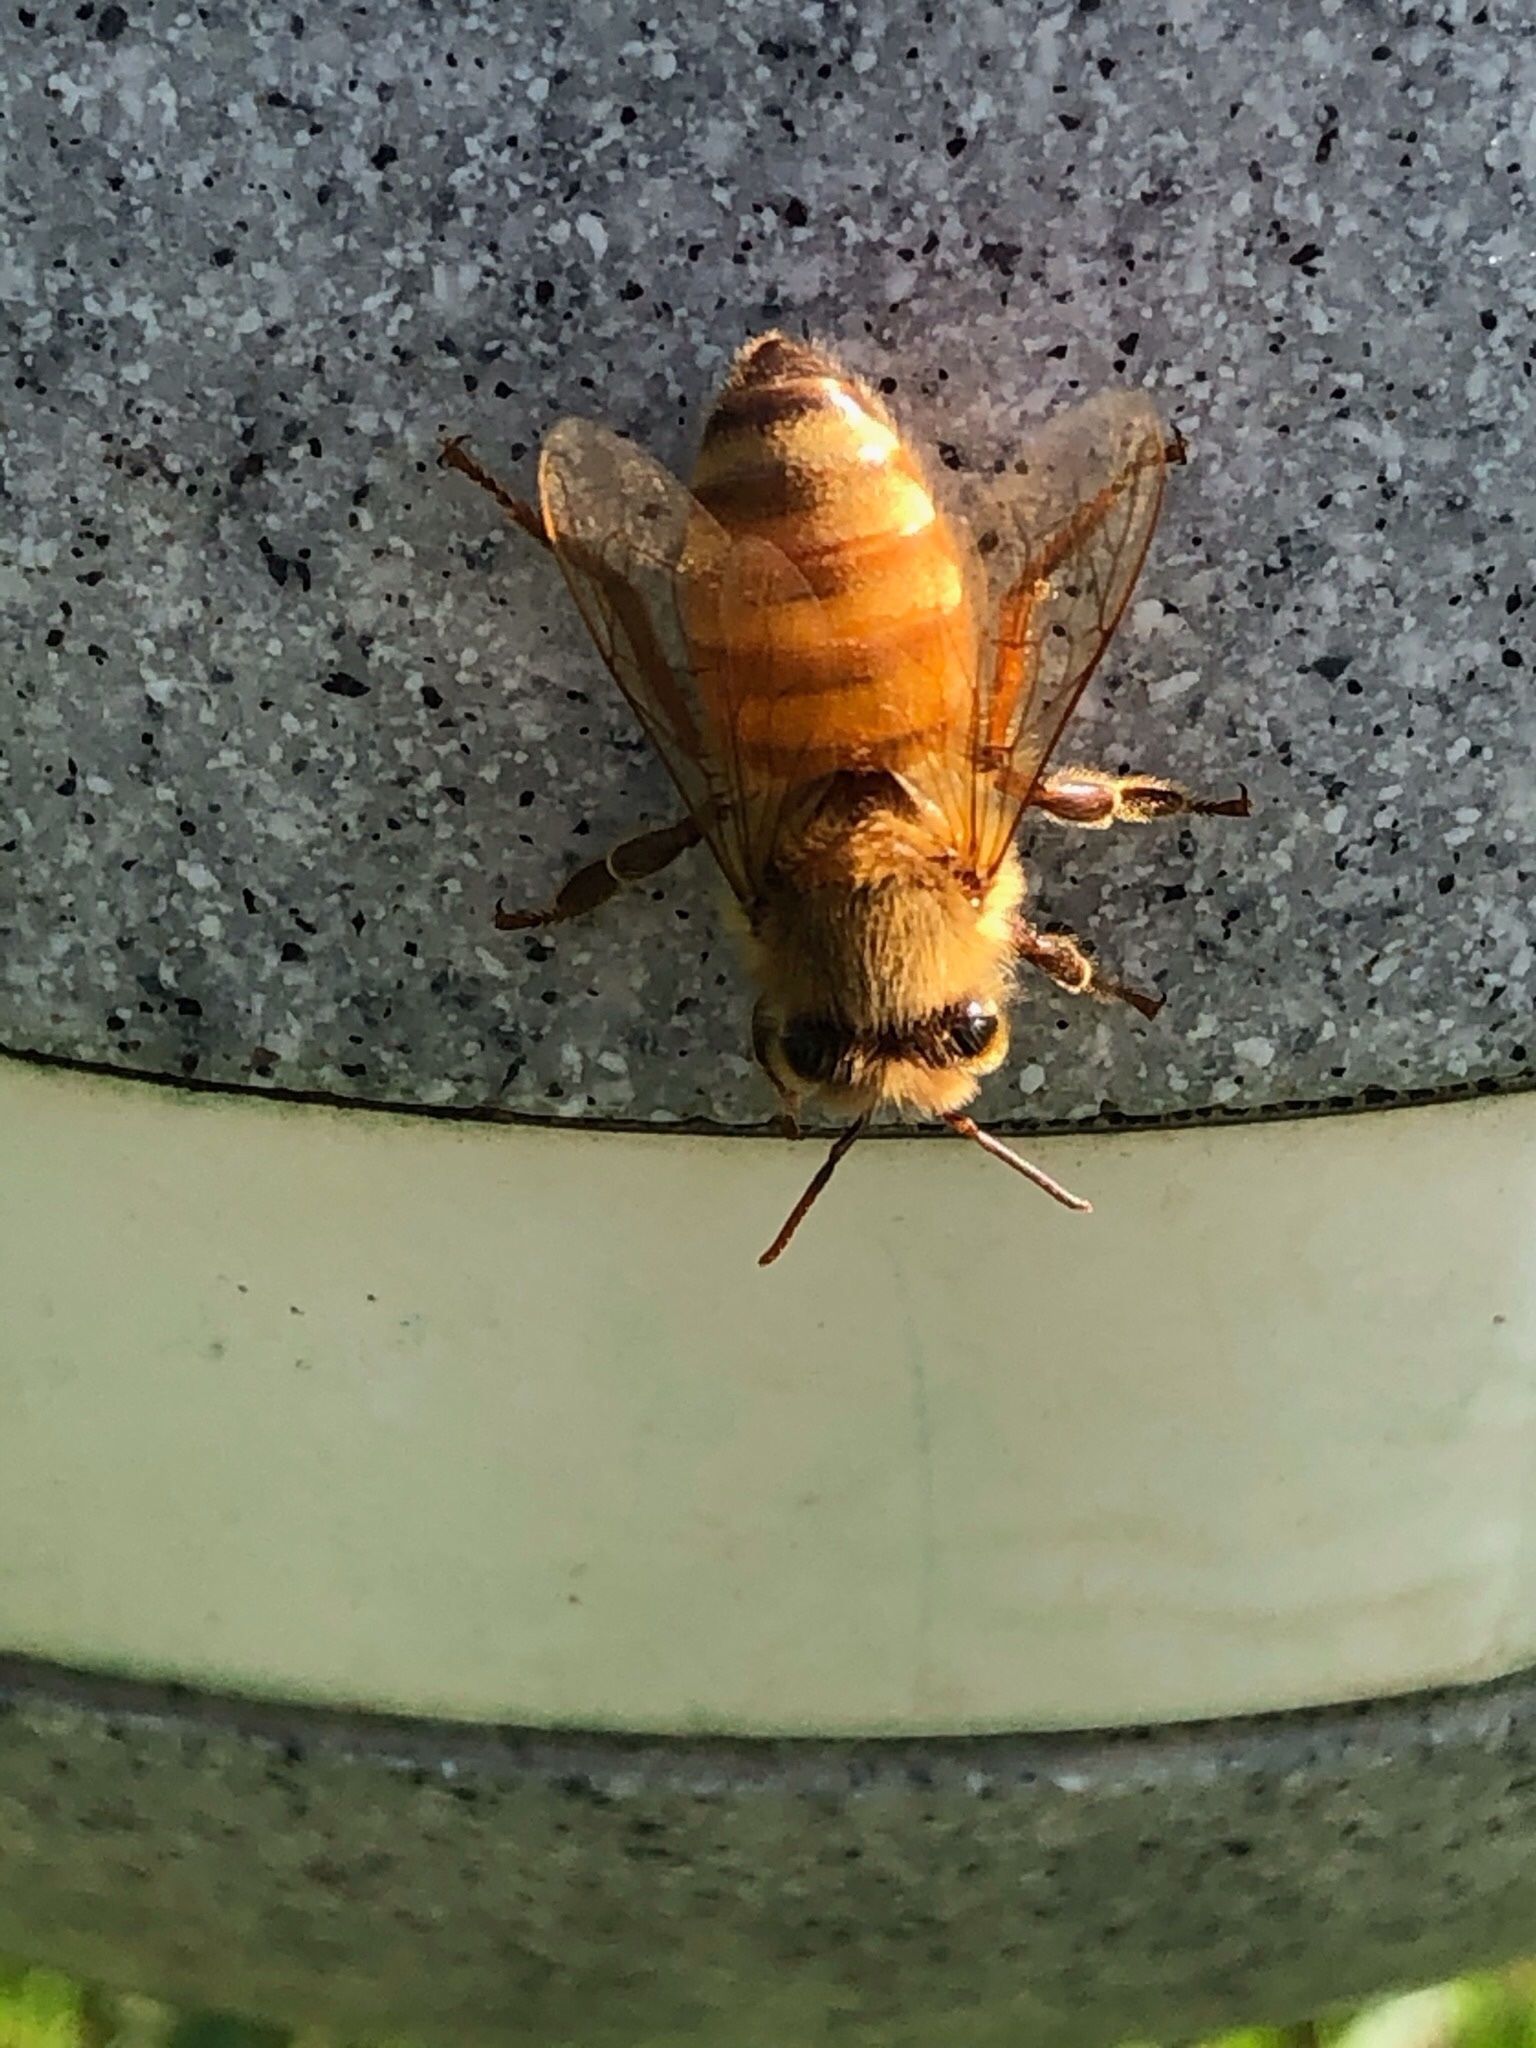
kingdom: Animalia
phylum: Arthropoda
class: Insecta
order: Hymenoptera
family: Apidae
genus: Apis
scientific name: Apis mellifera
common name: Honey bee
